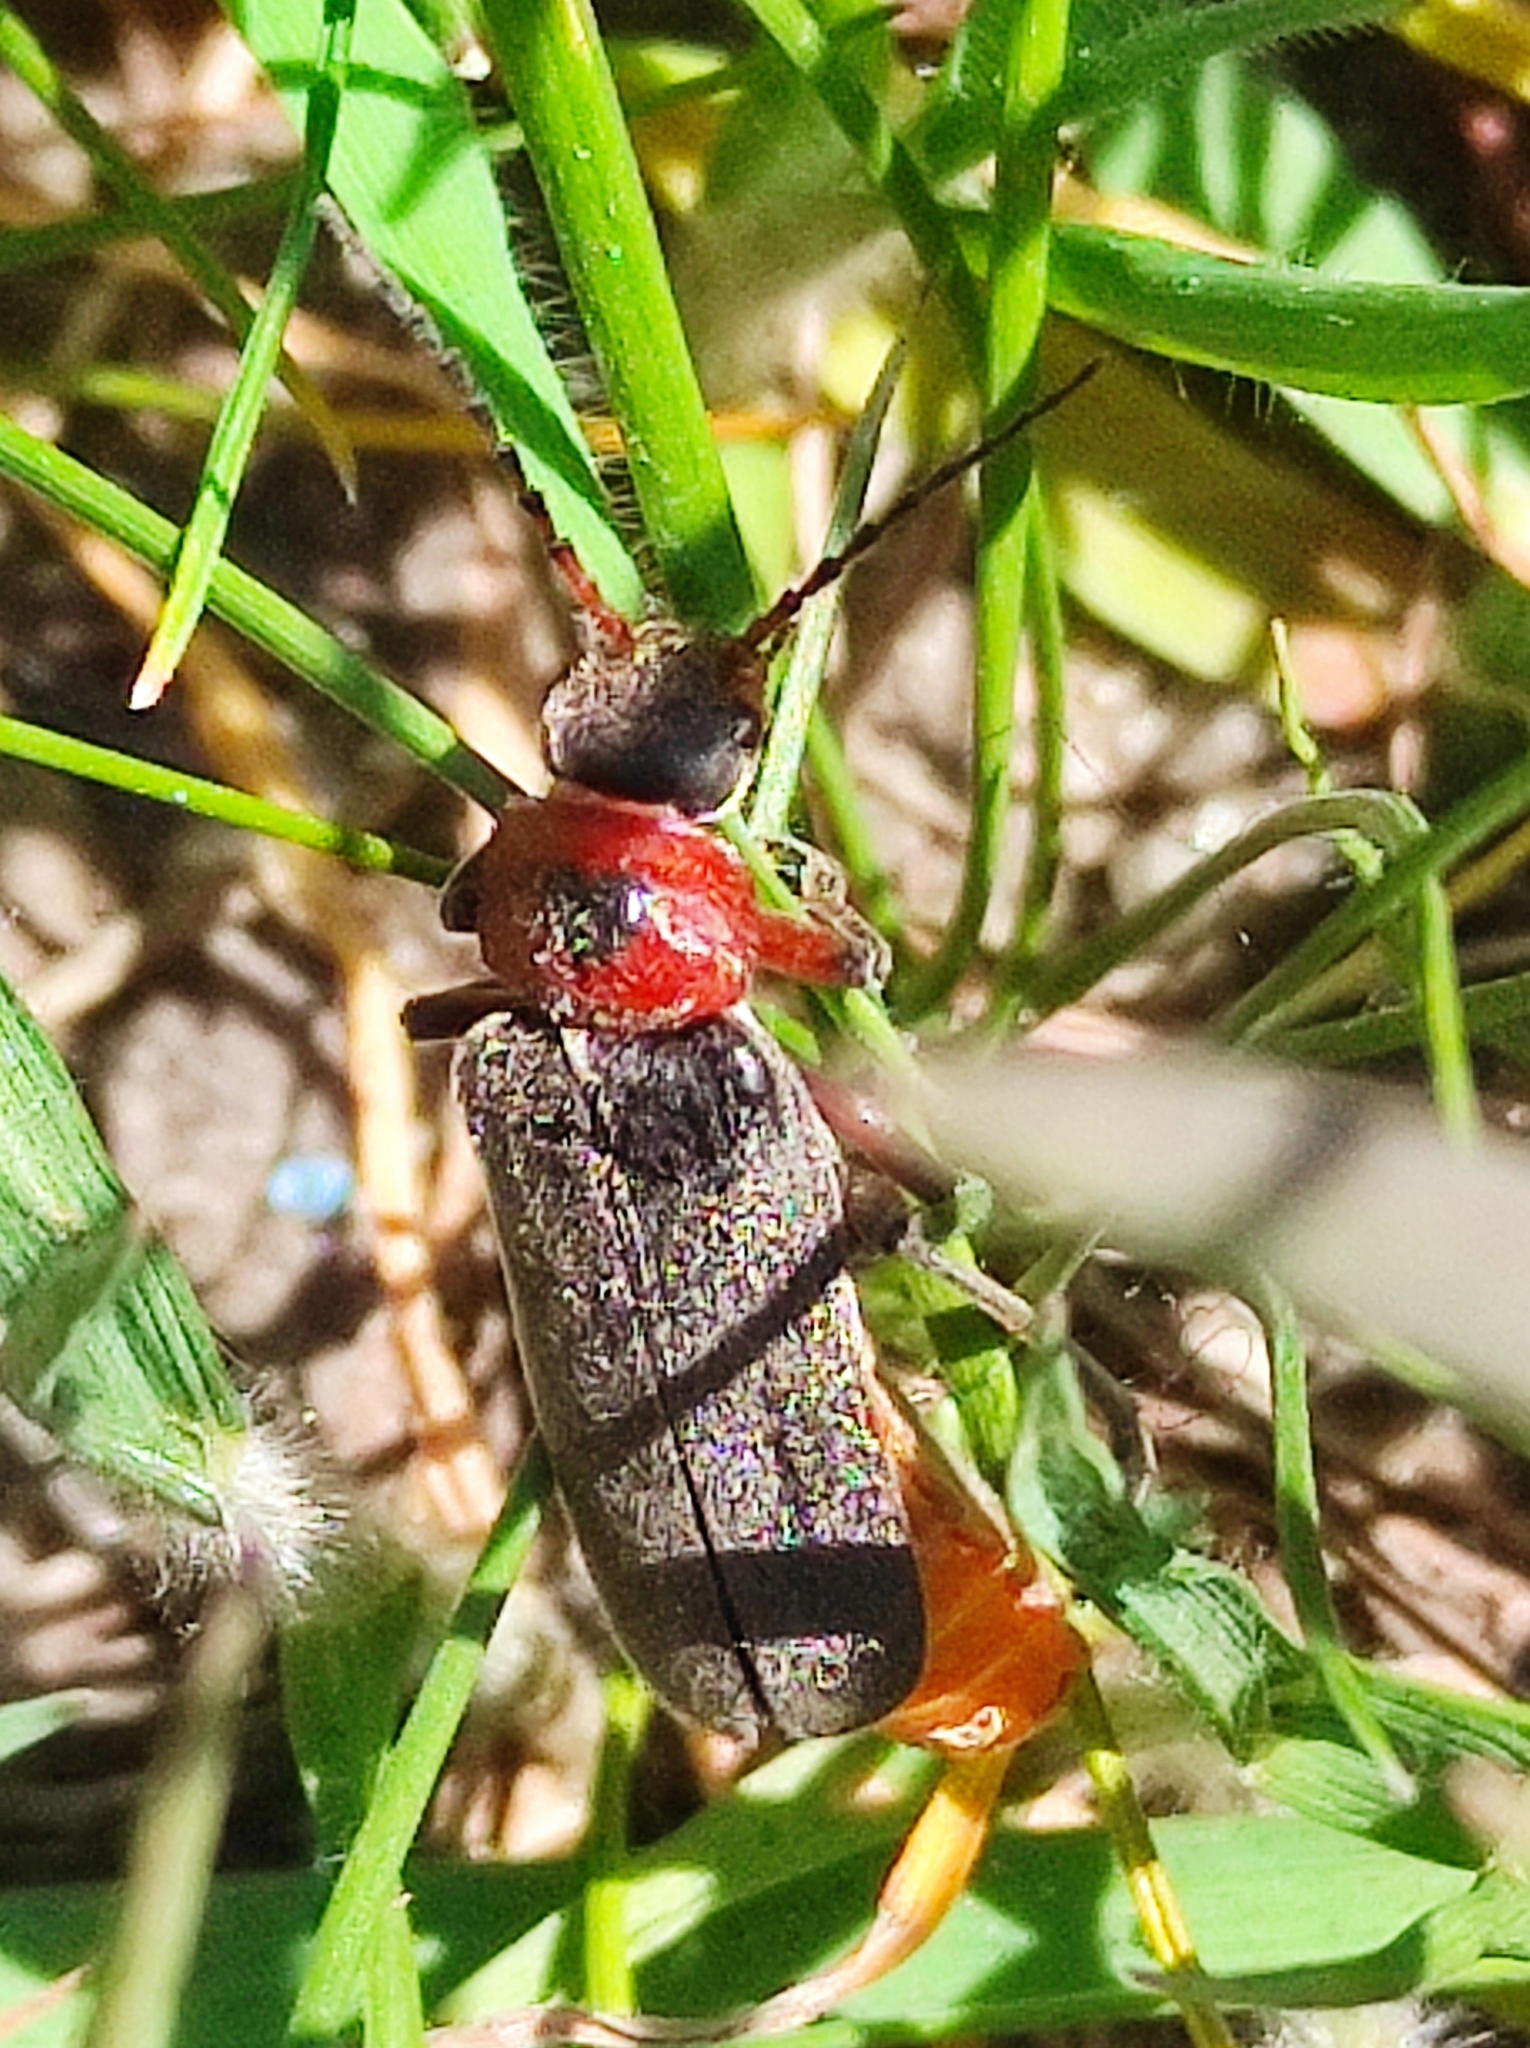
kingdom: Animalia
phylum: Arthropoda
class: Insecta
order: Coleoptera
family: Cantharidae
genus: Cantharis
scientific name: Cantharis rustica
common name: Soldier beetle
